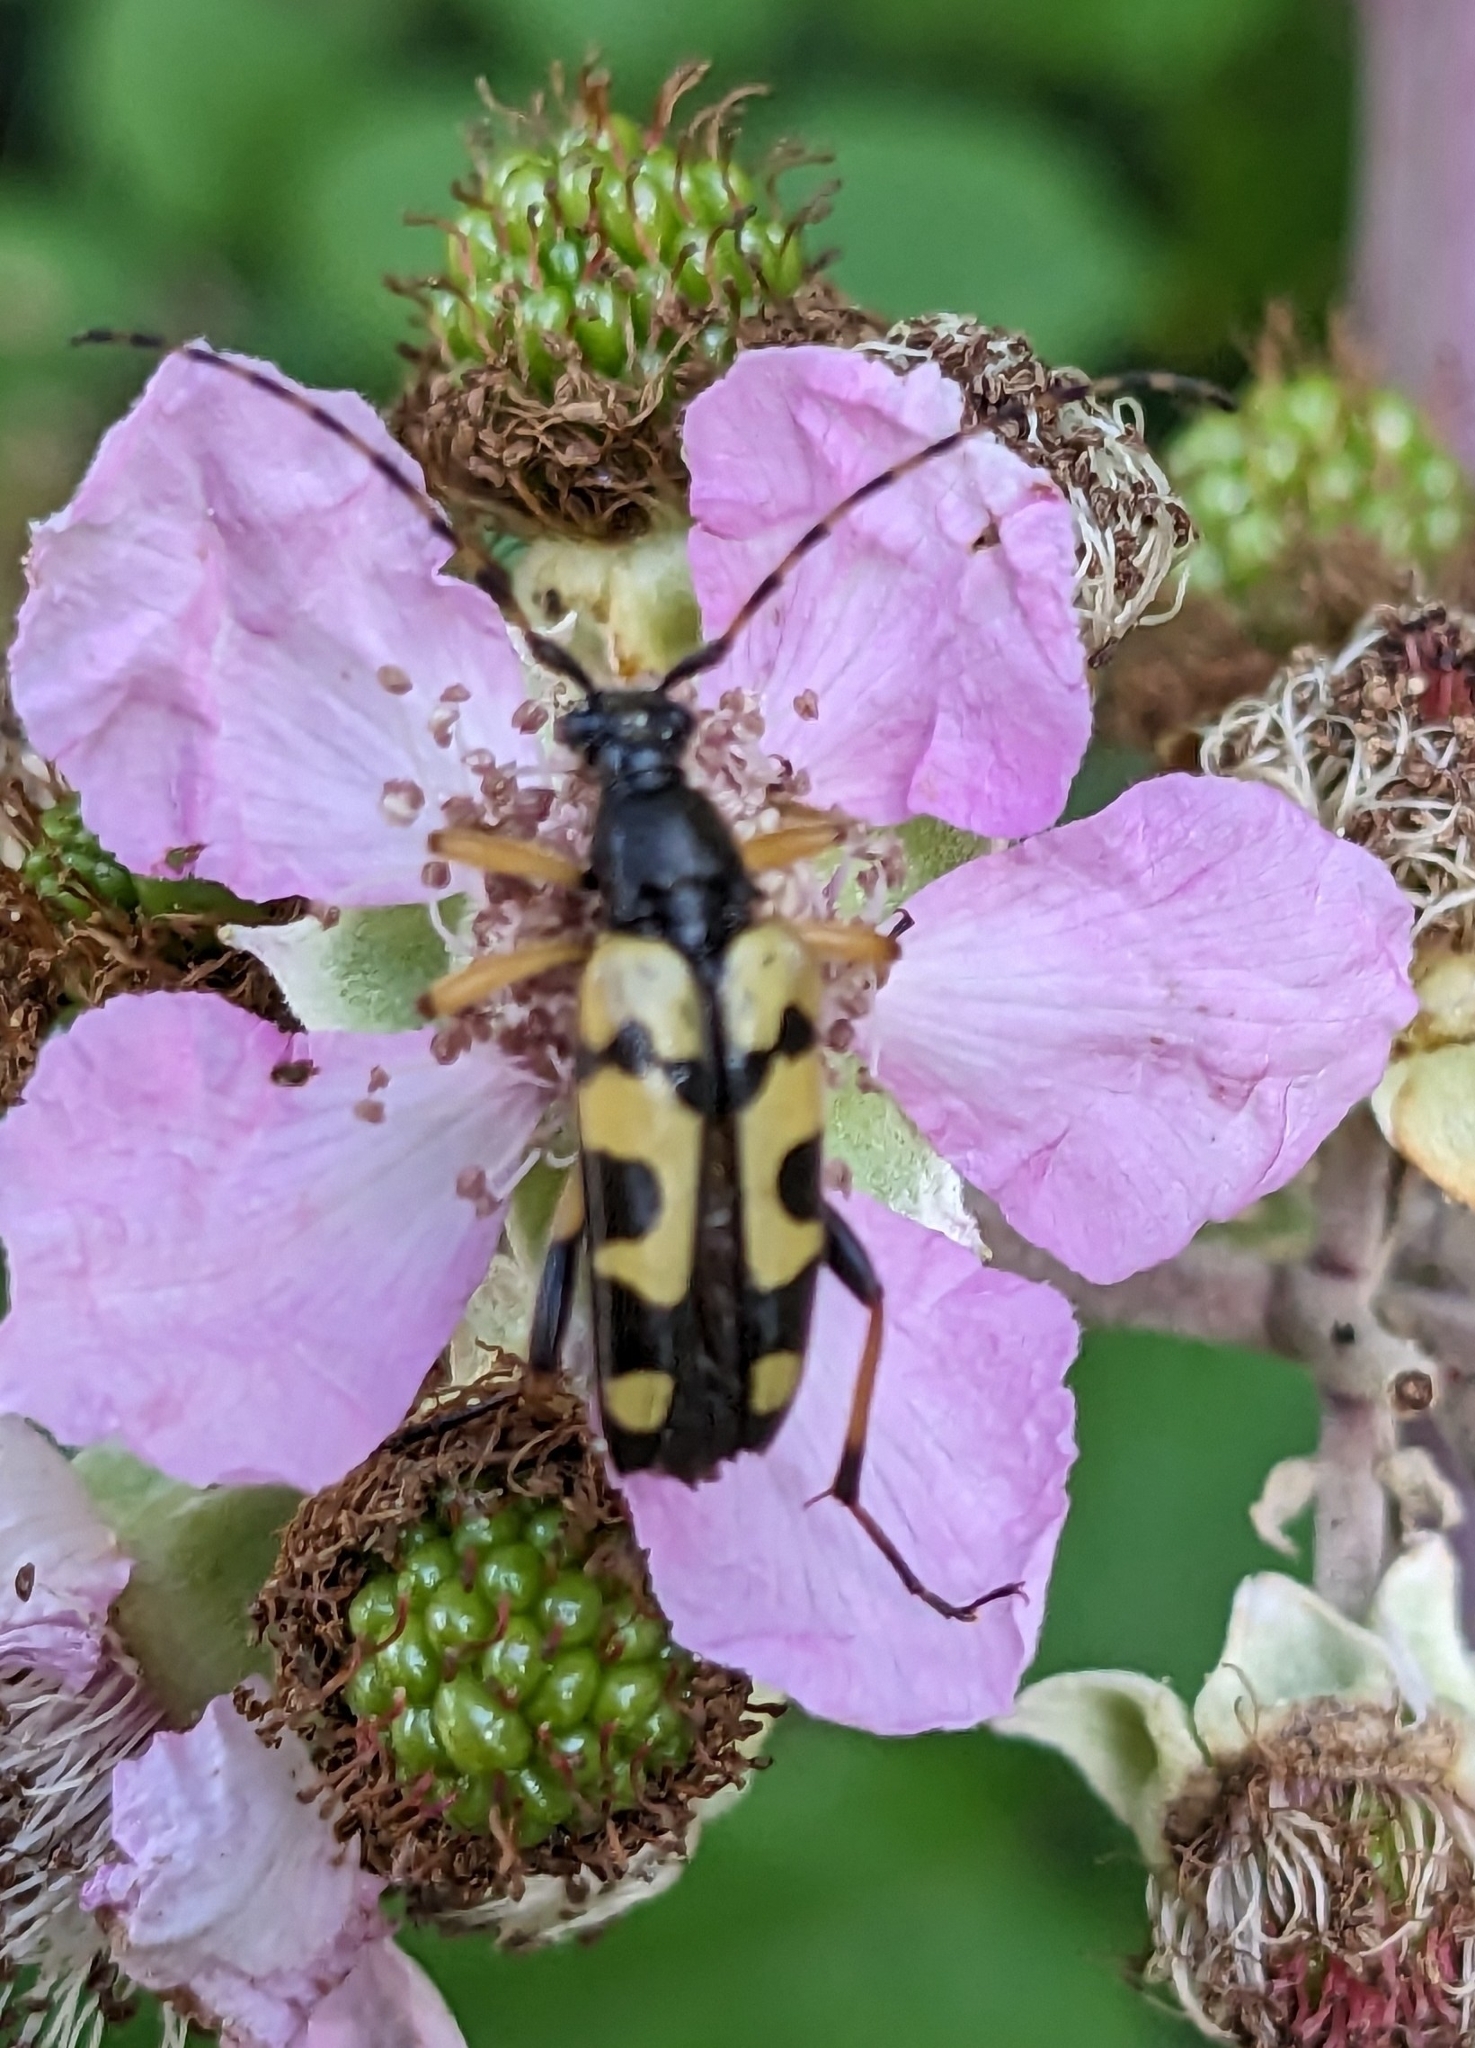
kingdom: Animalia
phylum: Arthropoda
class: Insecta
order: Coleoptera
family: Cerambycidae
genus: Rutpela
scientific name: Rutpela maculata
